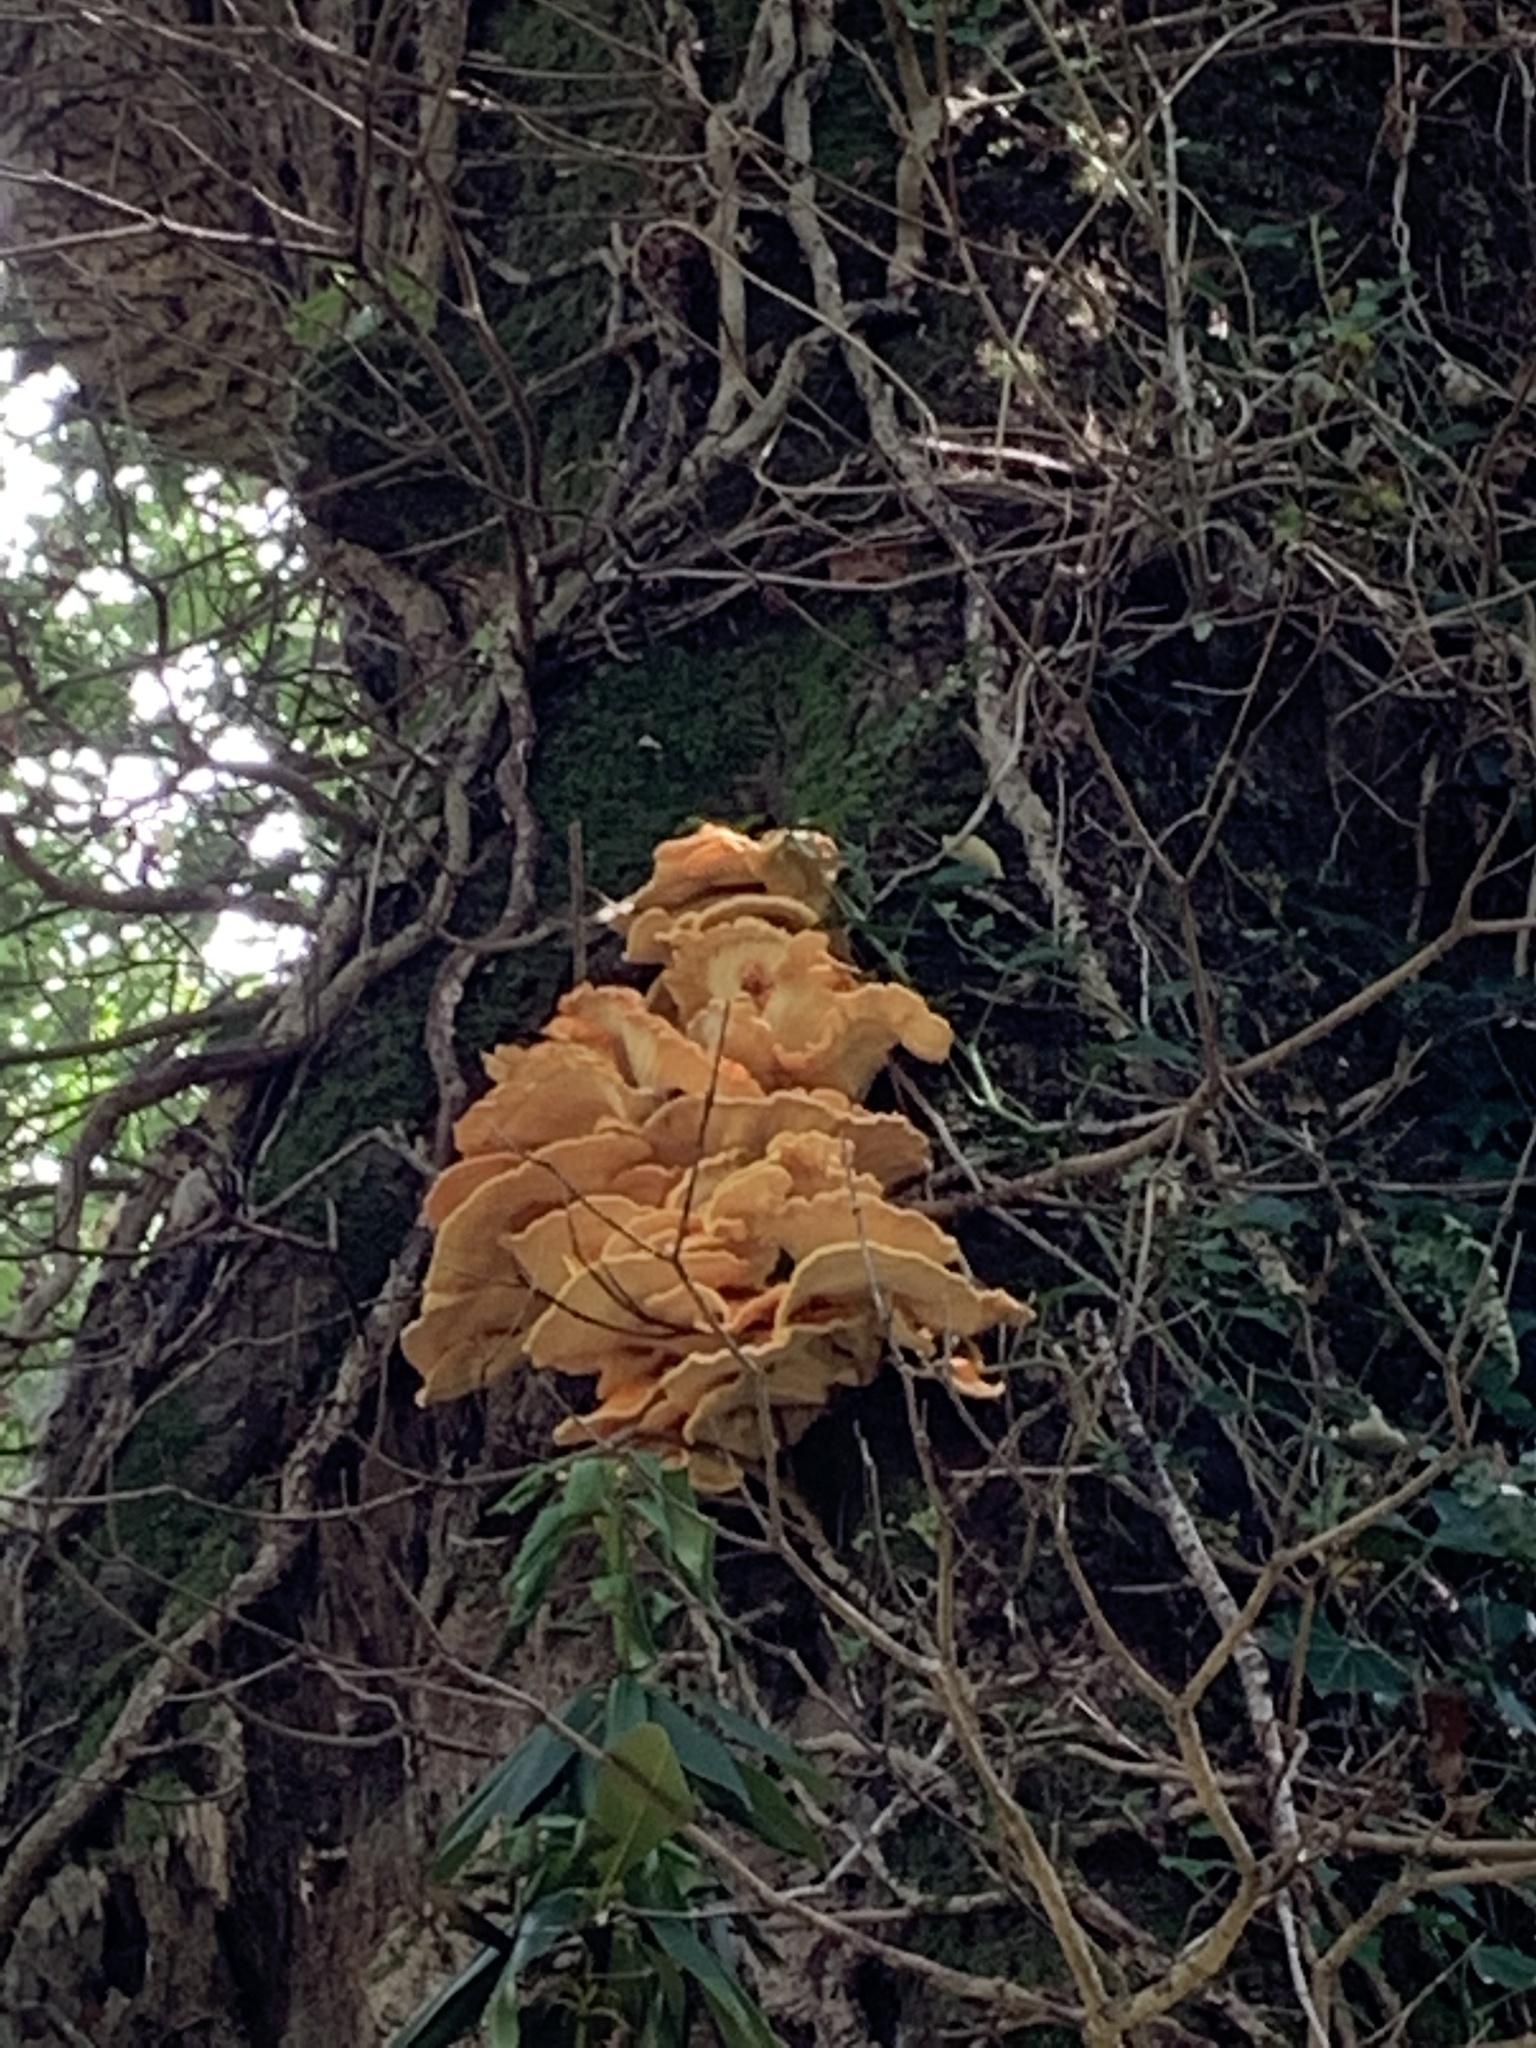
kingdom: Fungi
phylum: Basidiomycota
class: Agaricomycetes
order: Polyporales
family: Laetiporaceae
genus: Laetiporus
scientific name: Laetiporus sulphureus
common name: Chicken of the woods
